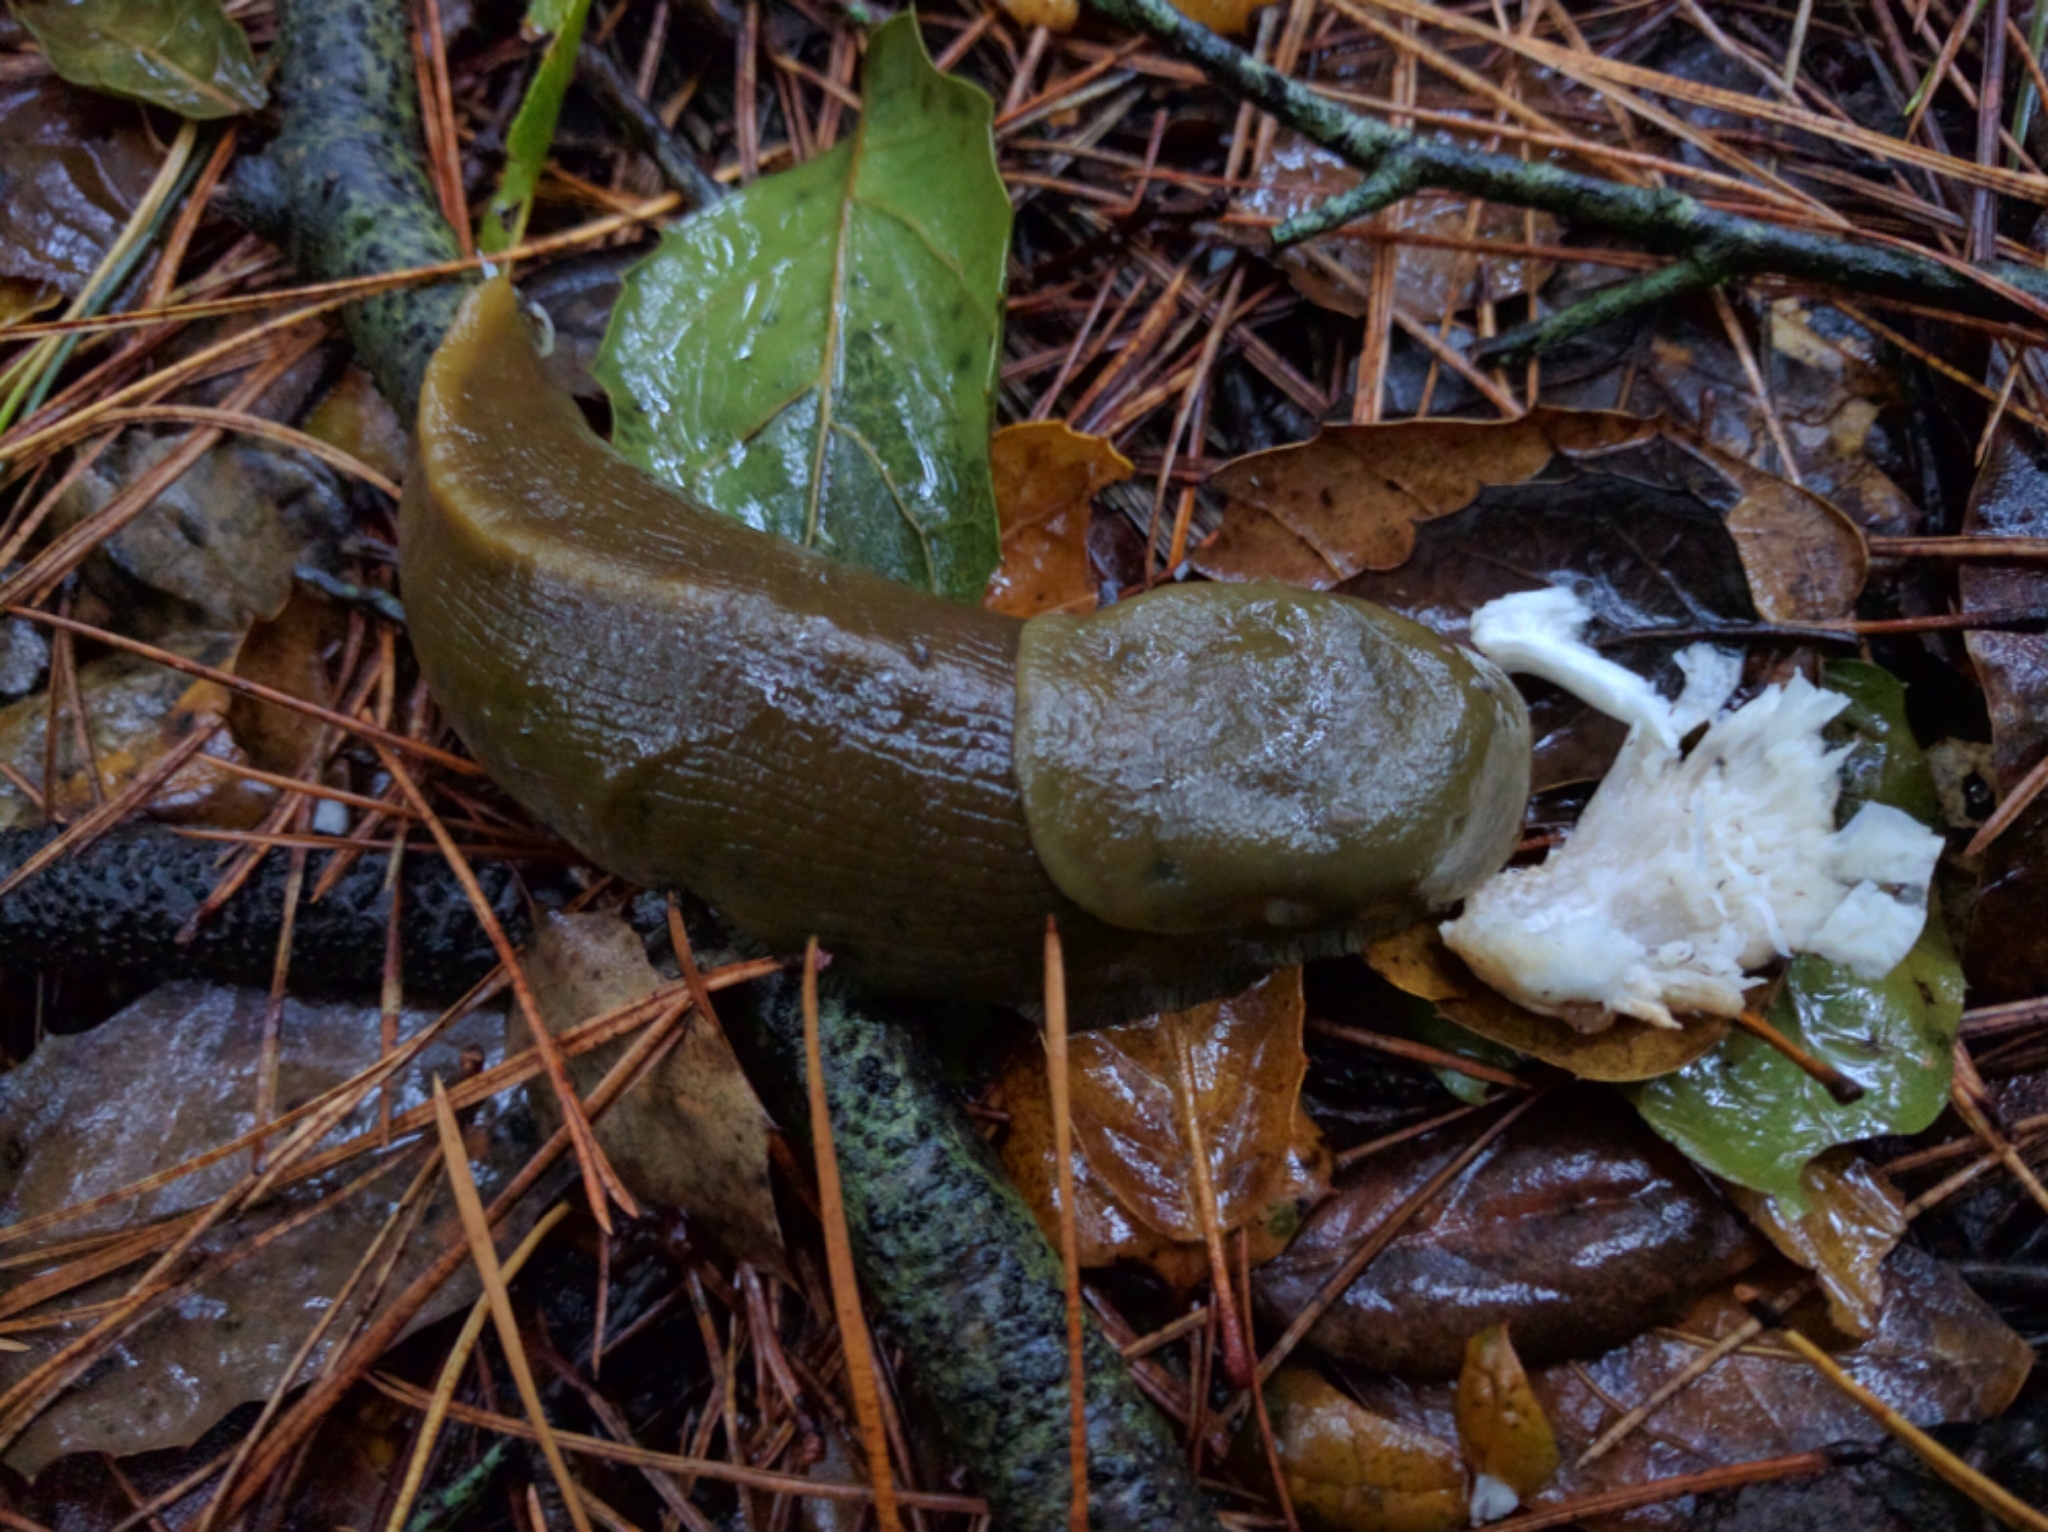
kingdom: Animalia
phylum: Mollusca
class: Gastropoda
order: Stylommatophora
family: Ariolimacidae
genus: Ariolimax
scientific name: Ariolimax
